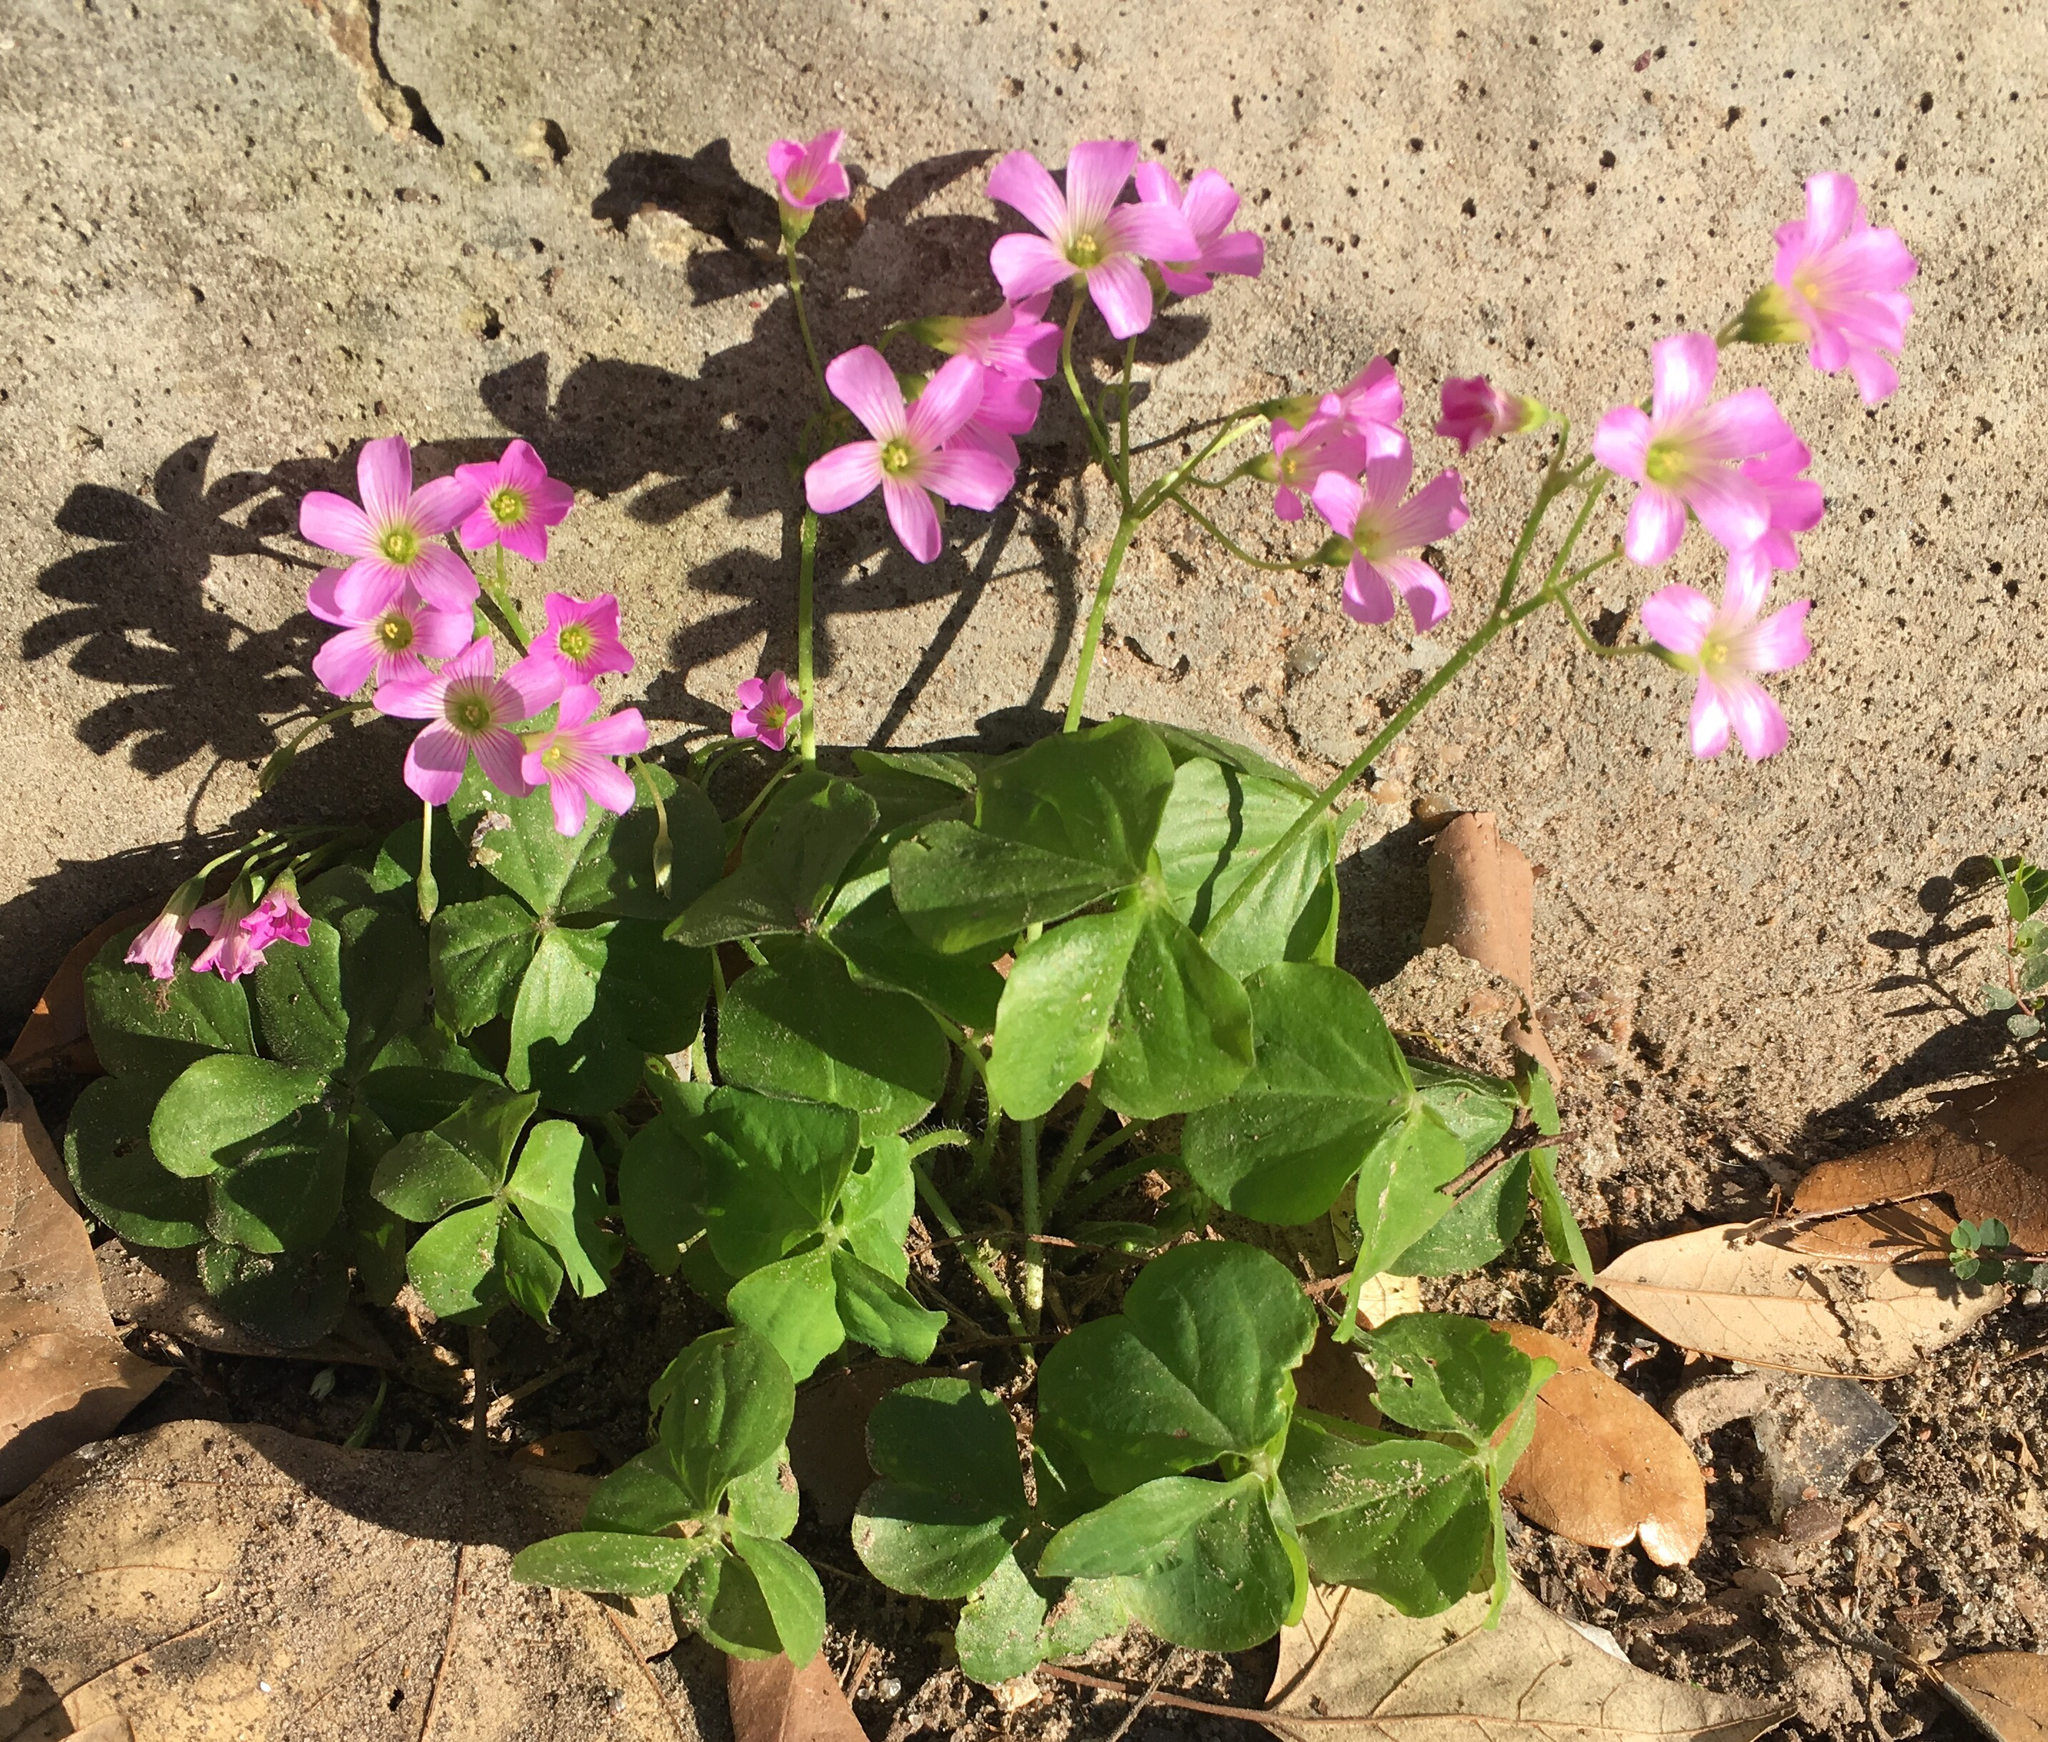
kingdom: Plantae
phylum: Tracheophyta
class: Magnoliopsida
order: Oxalidales
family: Oxalidaceae
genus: Oxalis
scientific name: Oxalis debilis
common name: Large-flowered pink-sorrel
